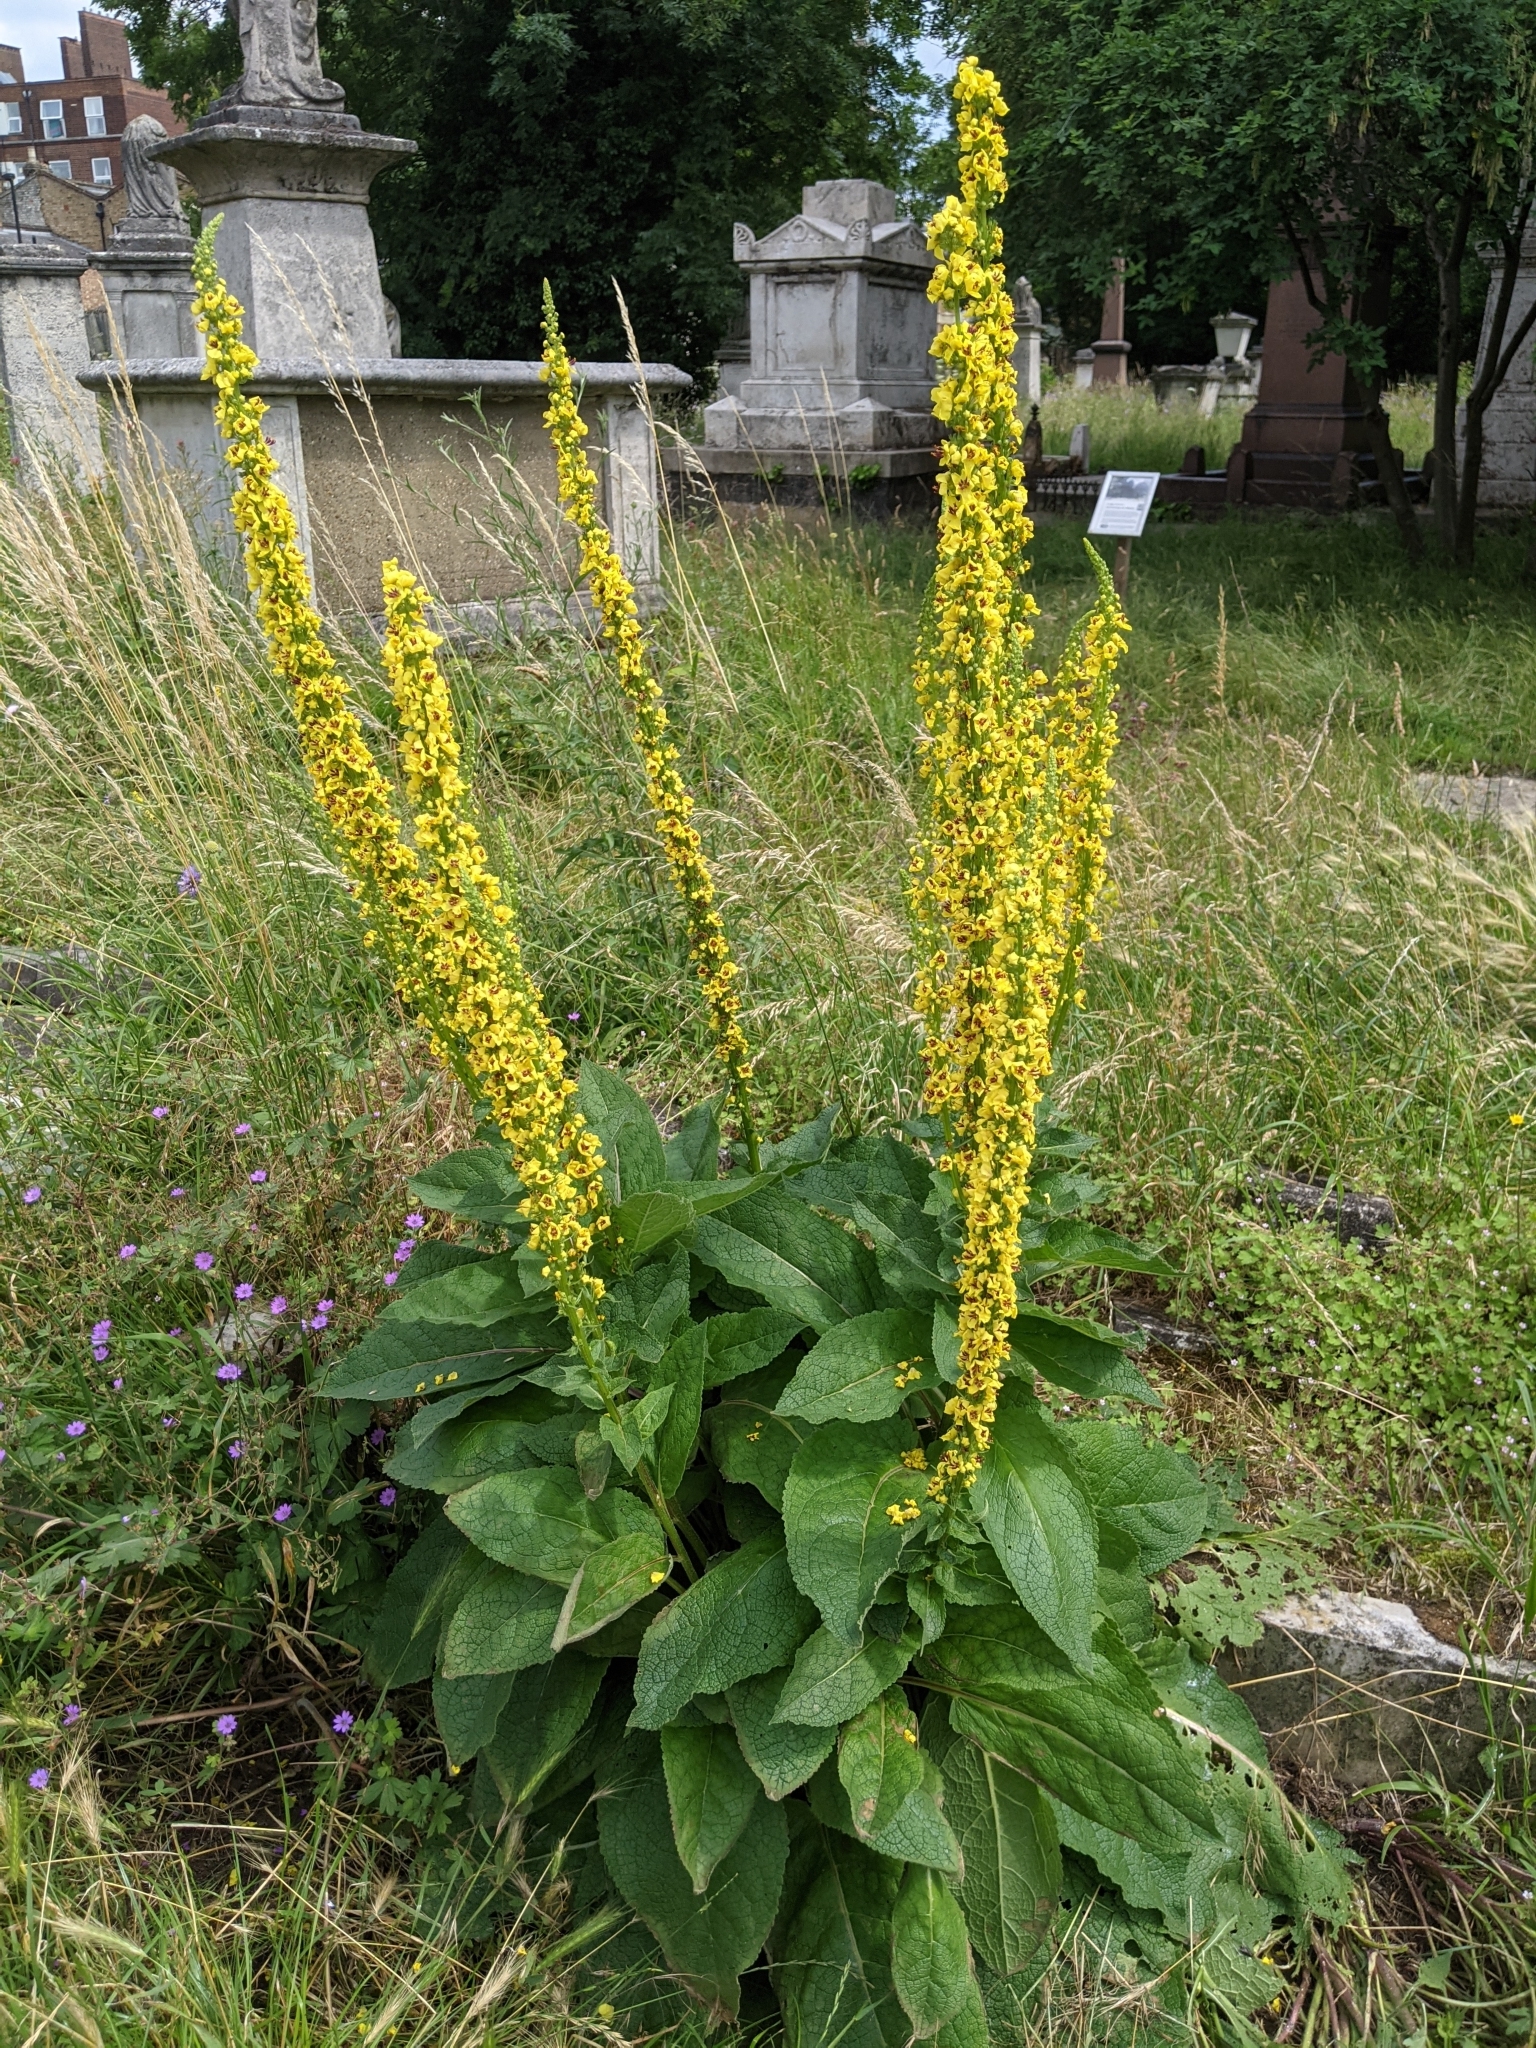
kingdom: Plantae
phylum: Tracheophyta
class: Magnoliopsida
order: Lamiales
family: Scrophulariaceae
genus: Verbascum
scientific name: Verbascum nigrum
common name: Dark mullein
